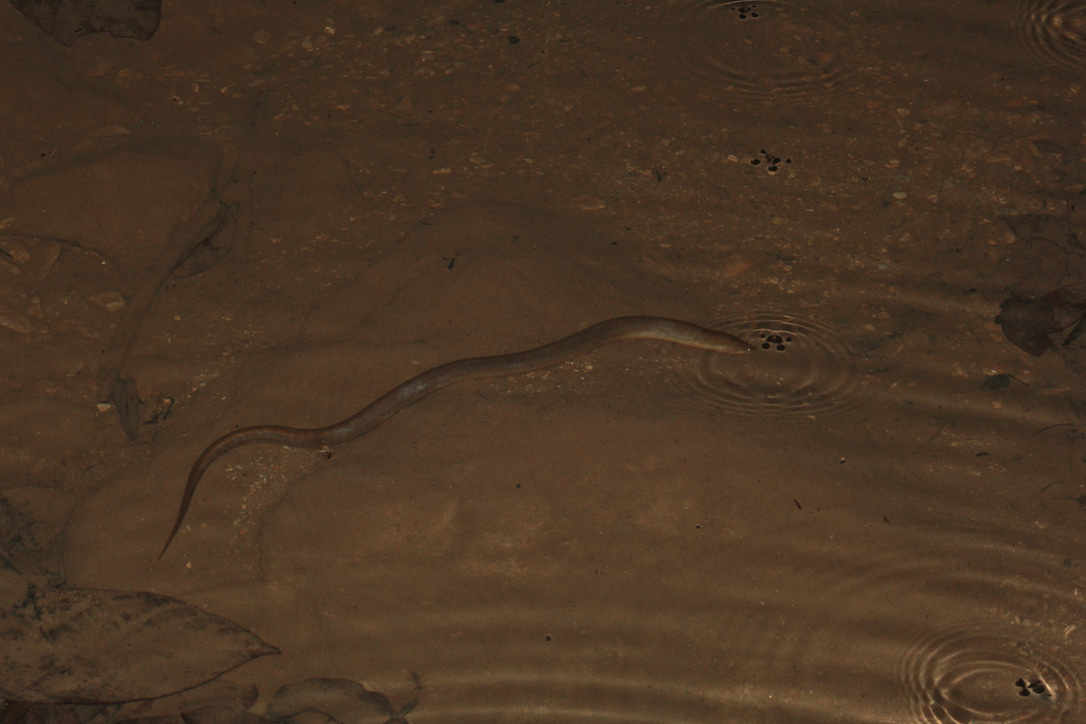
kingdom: Animalia
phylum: Chordata
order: Synbranchiformes
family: Synbranchidae
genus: Synbranchus
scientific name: Synbranchus marmoratus
